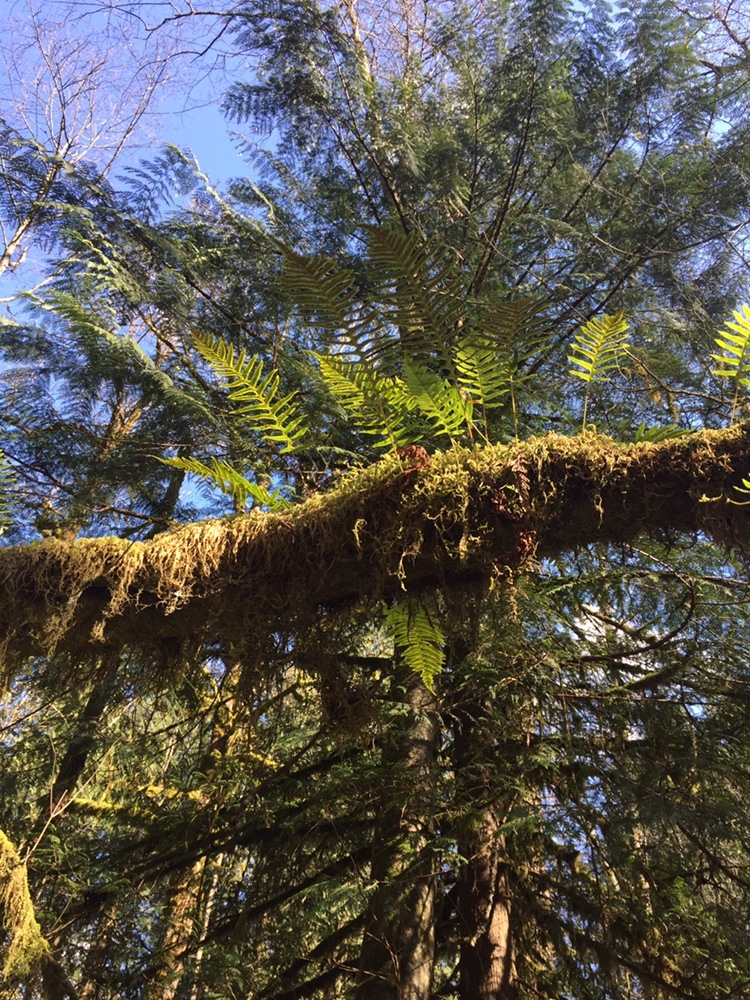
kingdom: Plantae
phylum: Tracheophyta
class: Polypodiopsida
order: Polypodiales
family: Polypodiaceae
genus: Polypodium
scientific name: Polypodium glycyrrhiza
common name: Licorice fern
